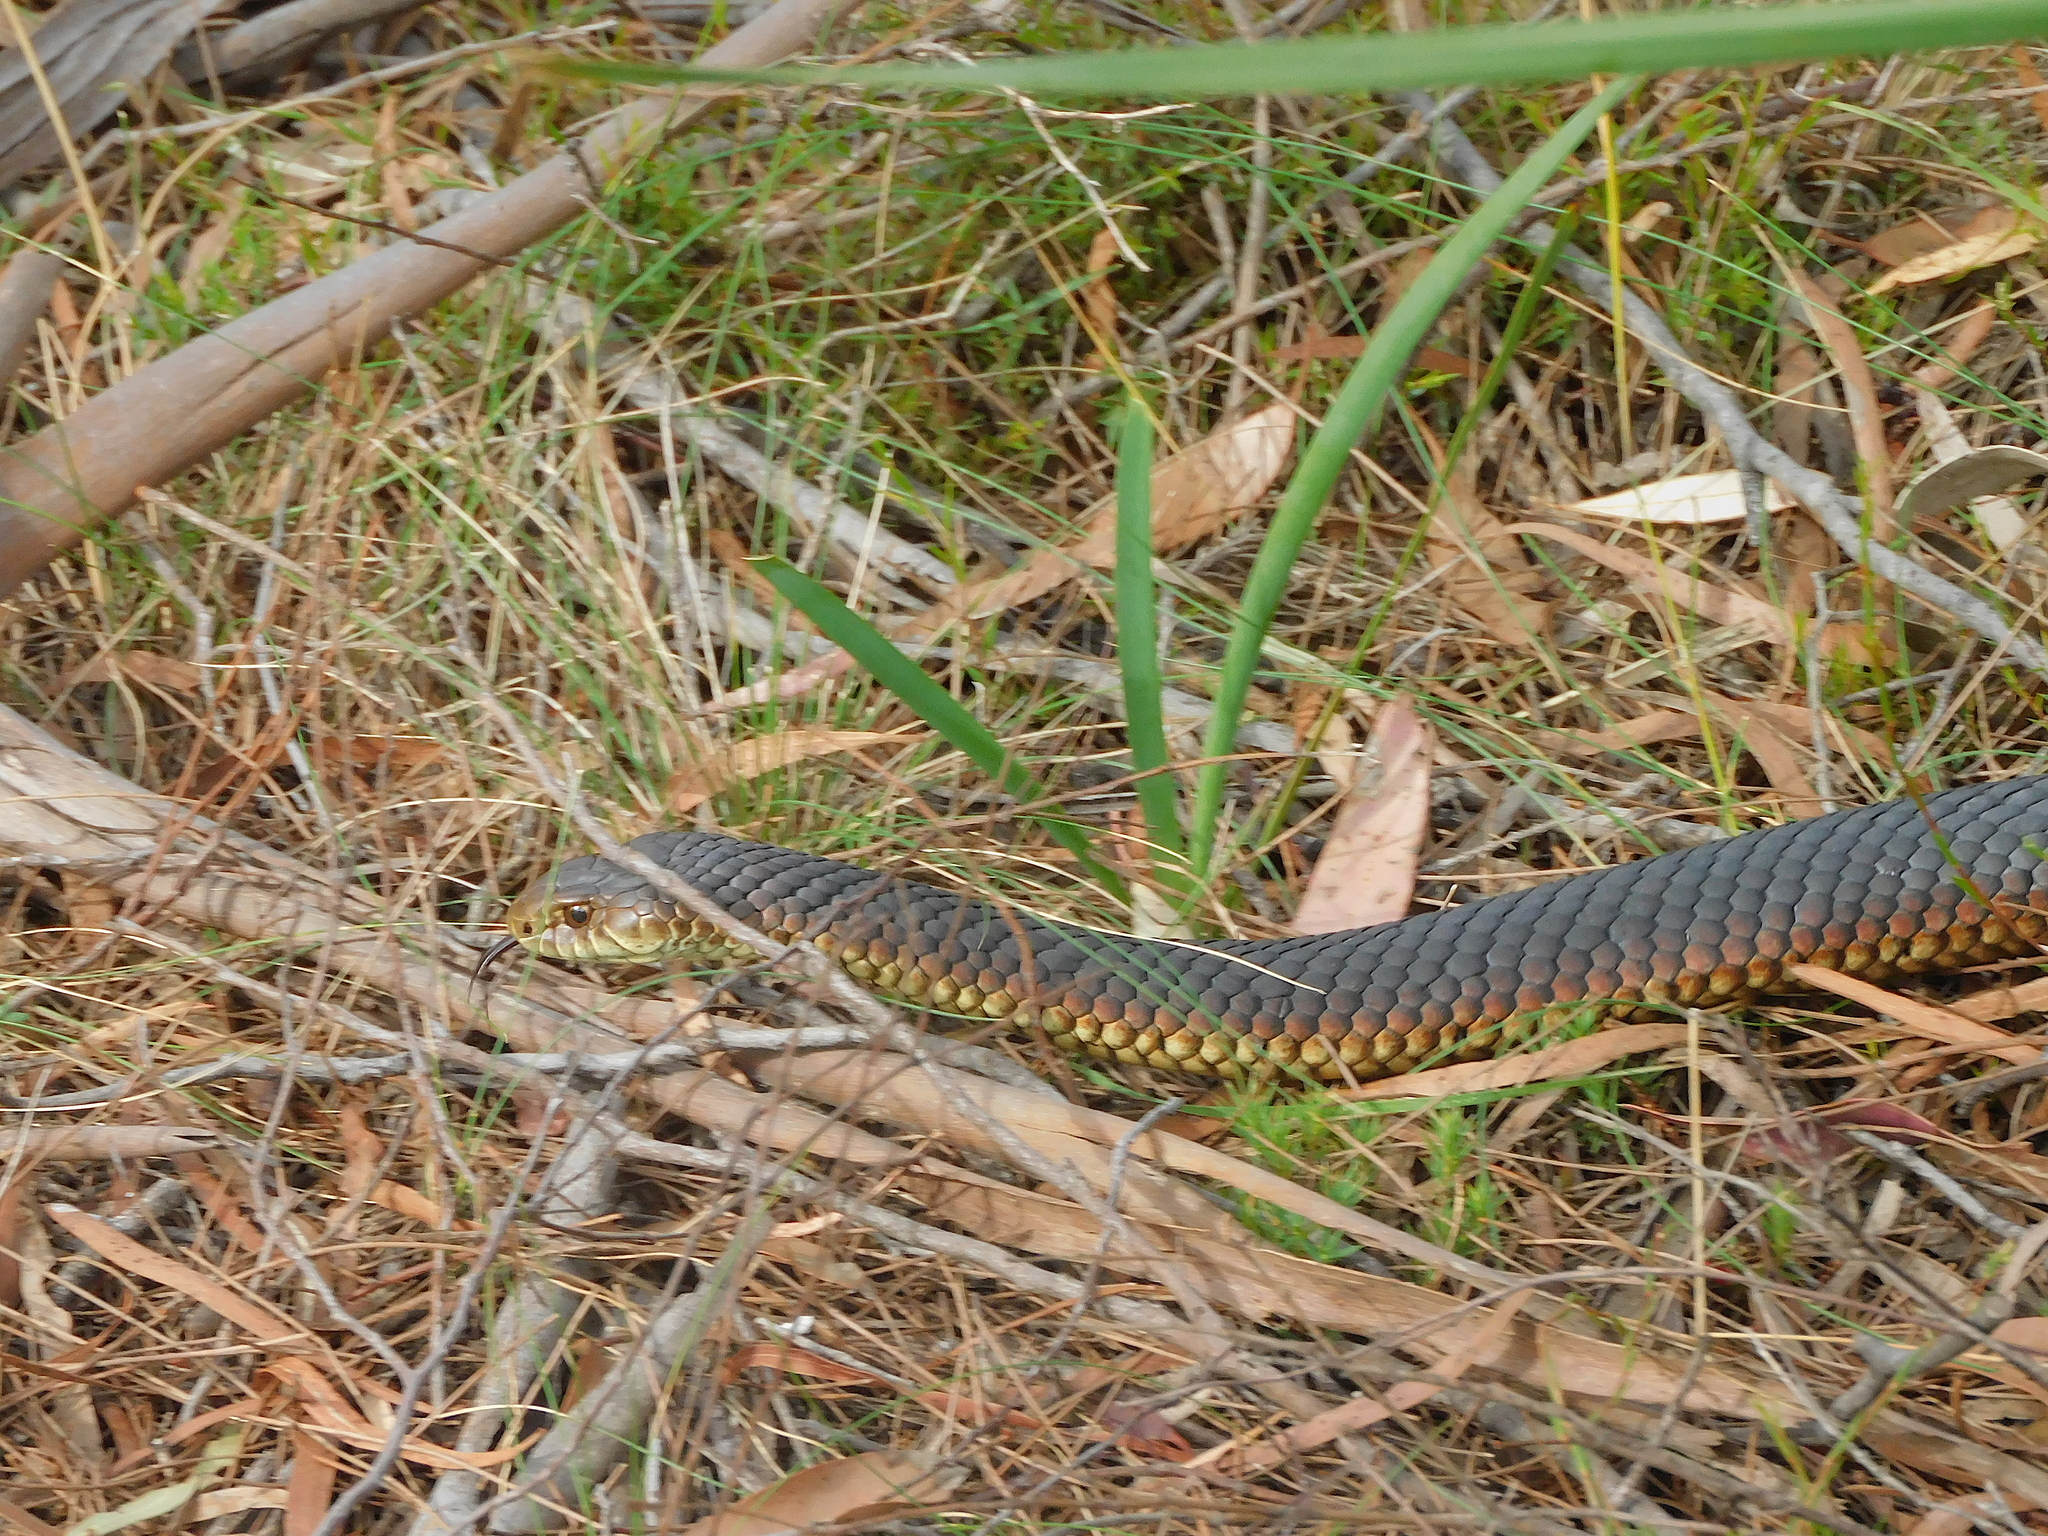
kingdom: Animalia
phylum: Chordata
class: Squamata
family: Elapidae
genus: Austrelaps
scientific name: Austrelaps superbus
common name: Copperhead snake
